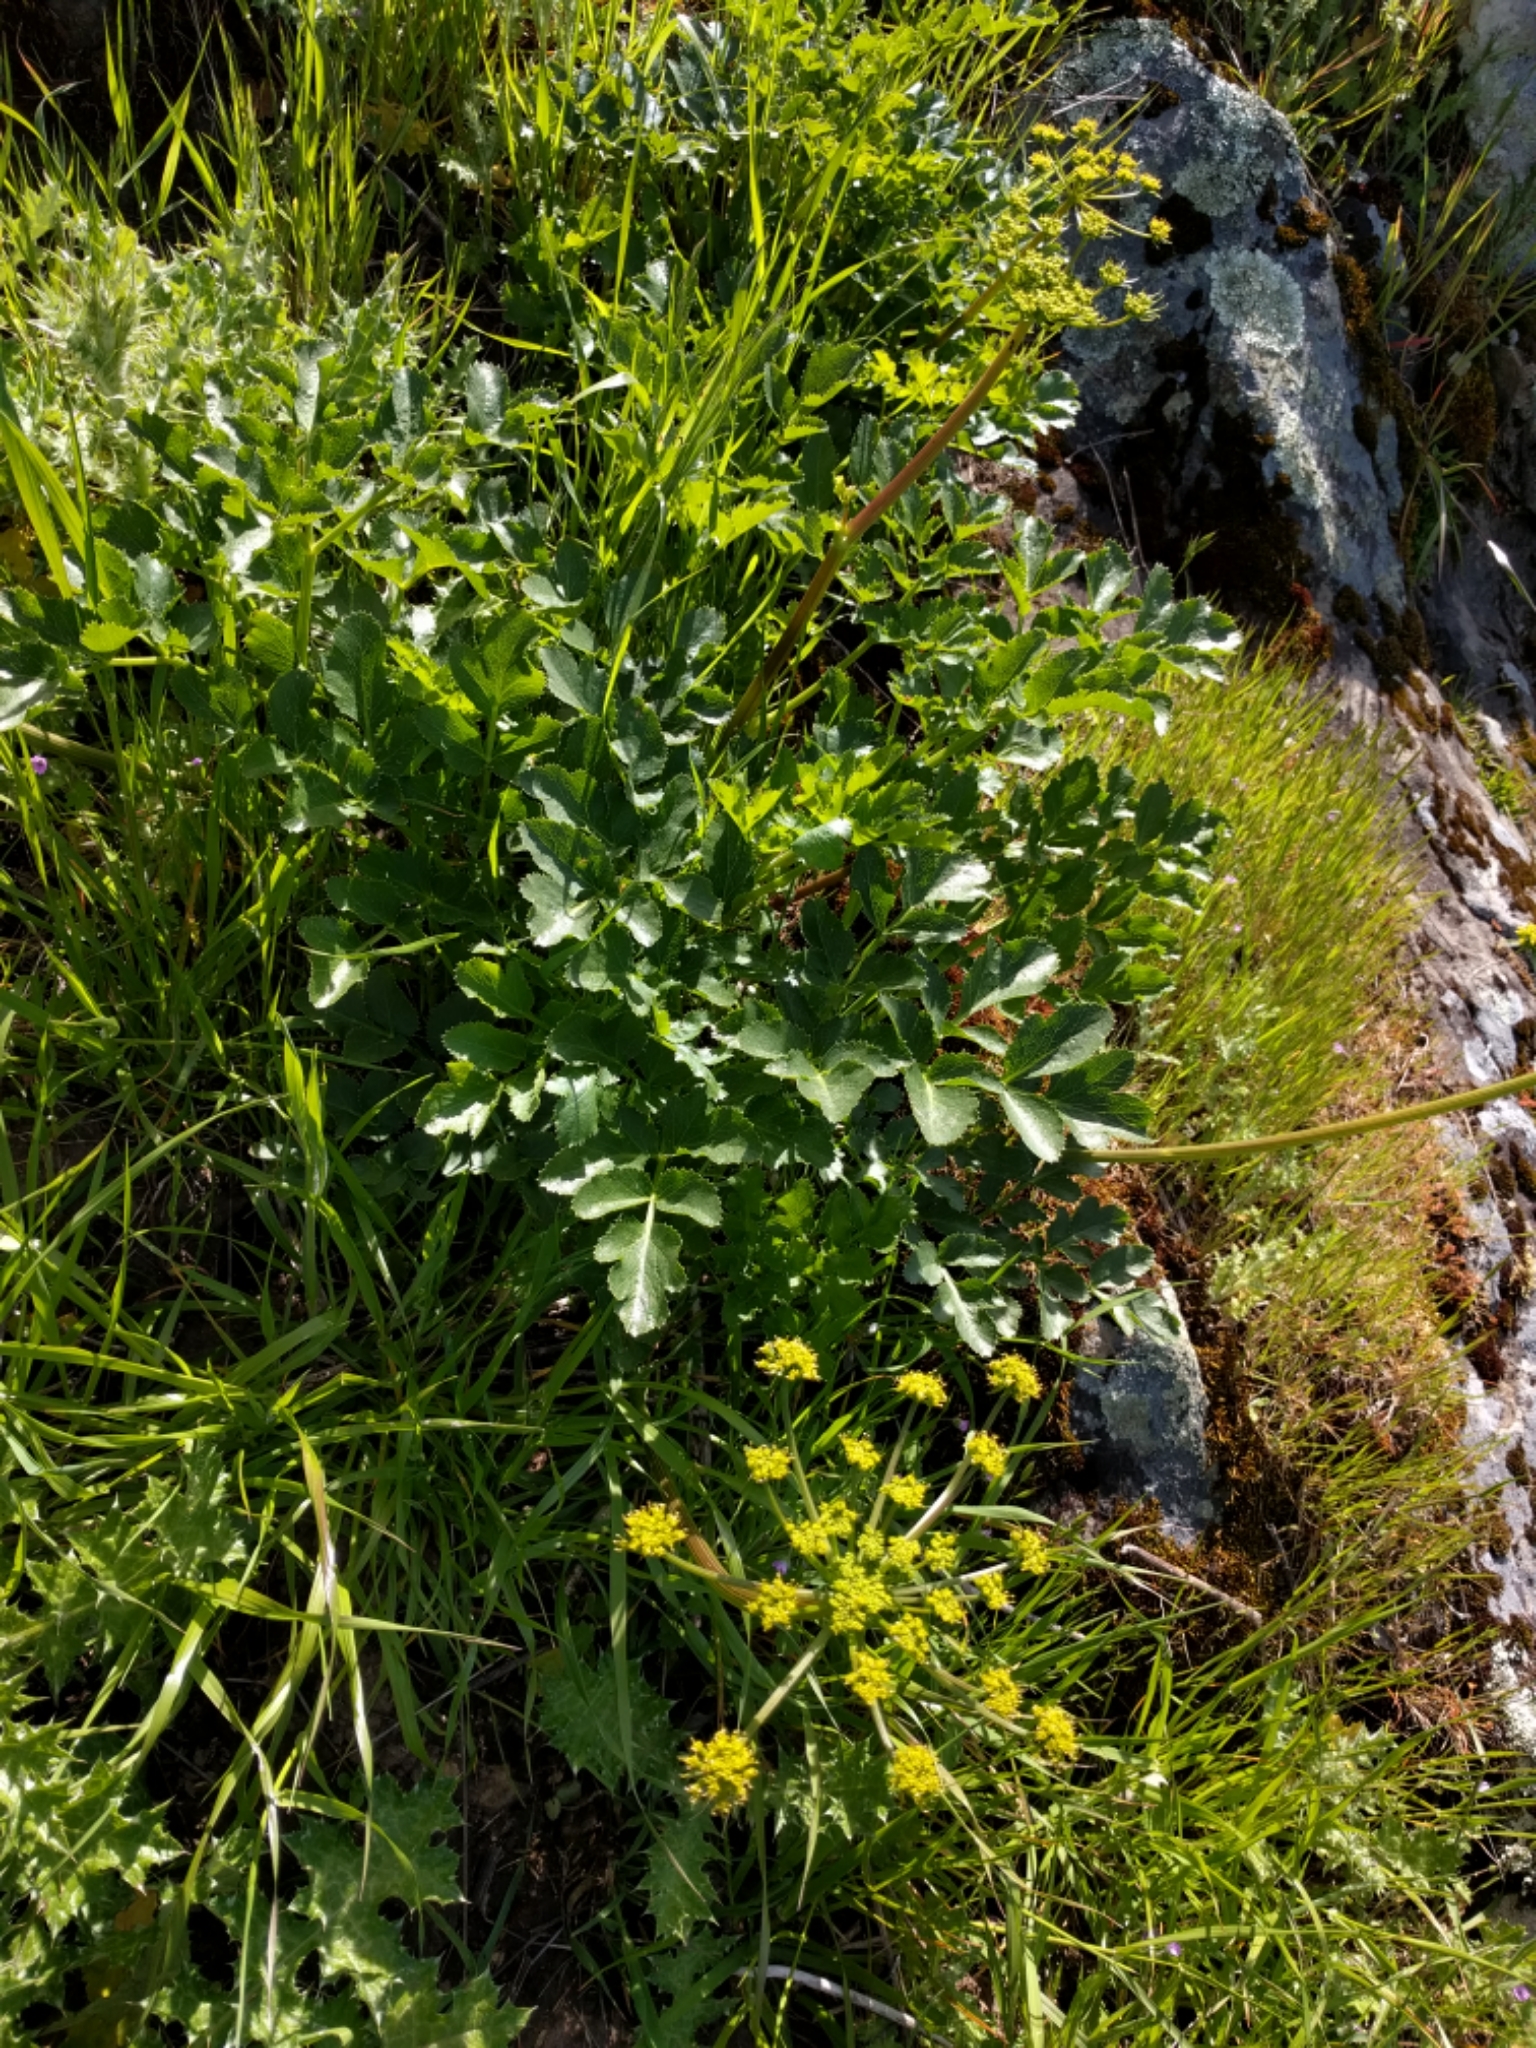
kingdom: Plantae
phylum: Tracheophyta
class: Magnoliopsida
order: Apiales
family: Apiaceae
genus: Tauschia
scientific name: Tauschia hartwegii
